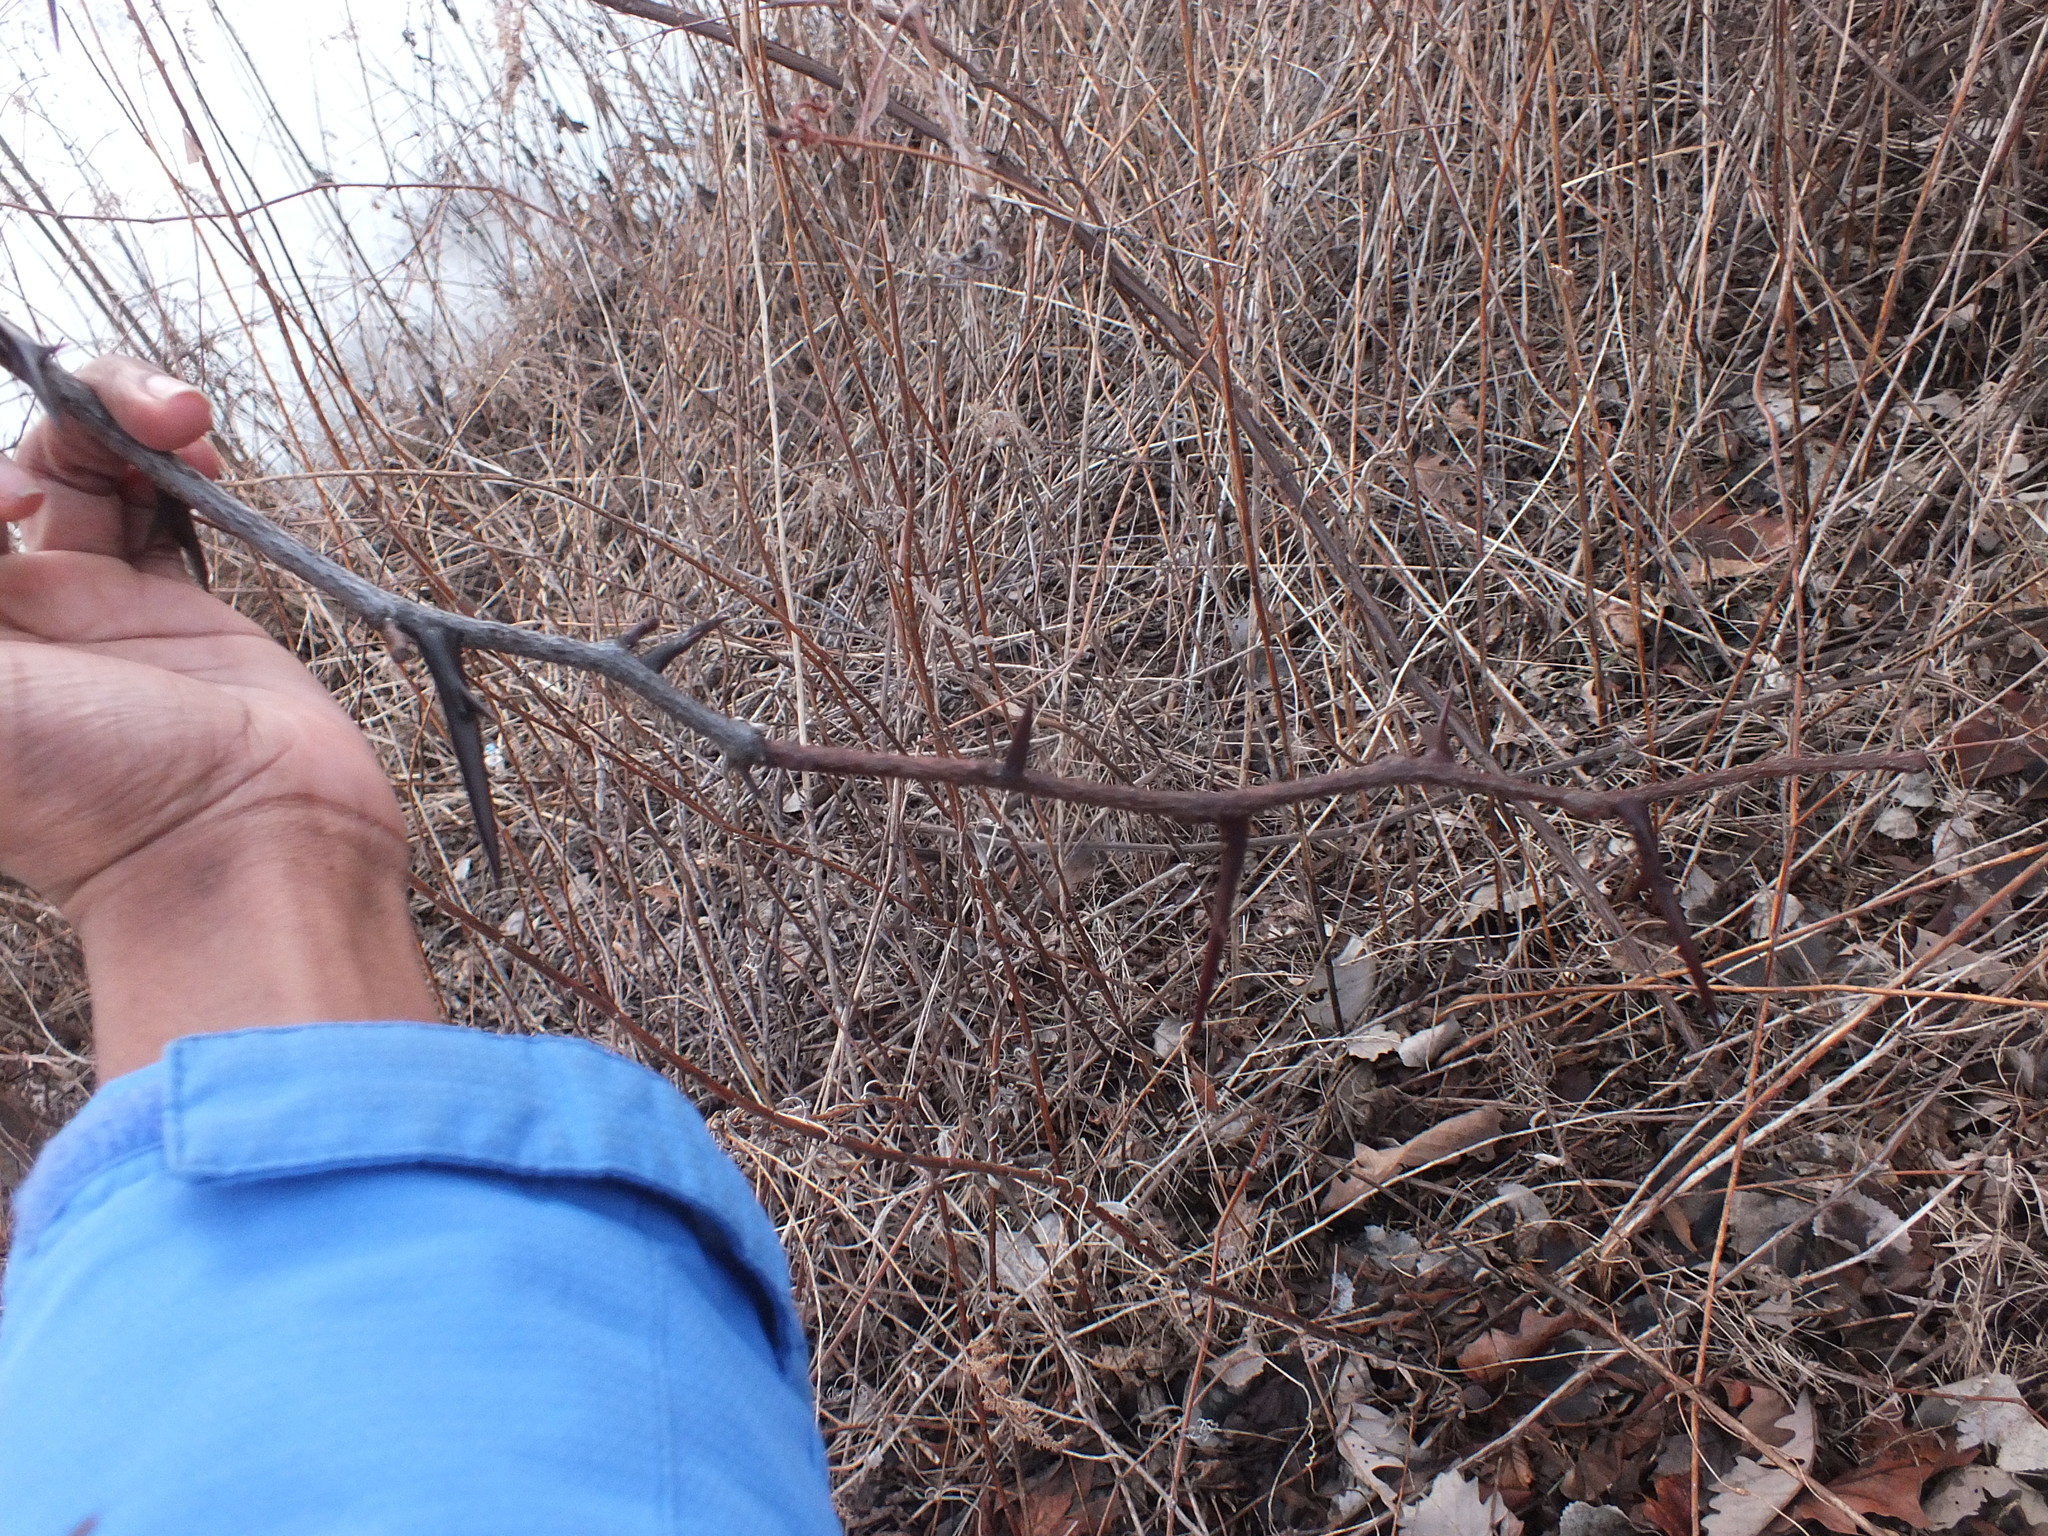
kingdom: Plantae
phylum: Tracheophyta
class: Magnoliopsida
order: Fabales
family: Fabaceae
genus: Gleditsia
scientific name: Gleditsia triacanthos
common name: Common honeylocust
